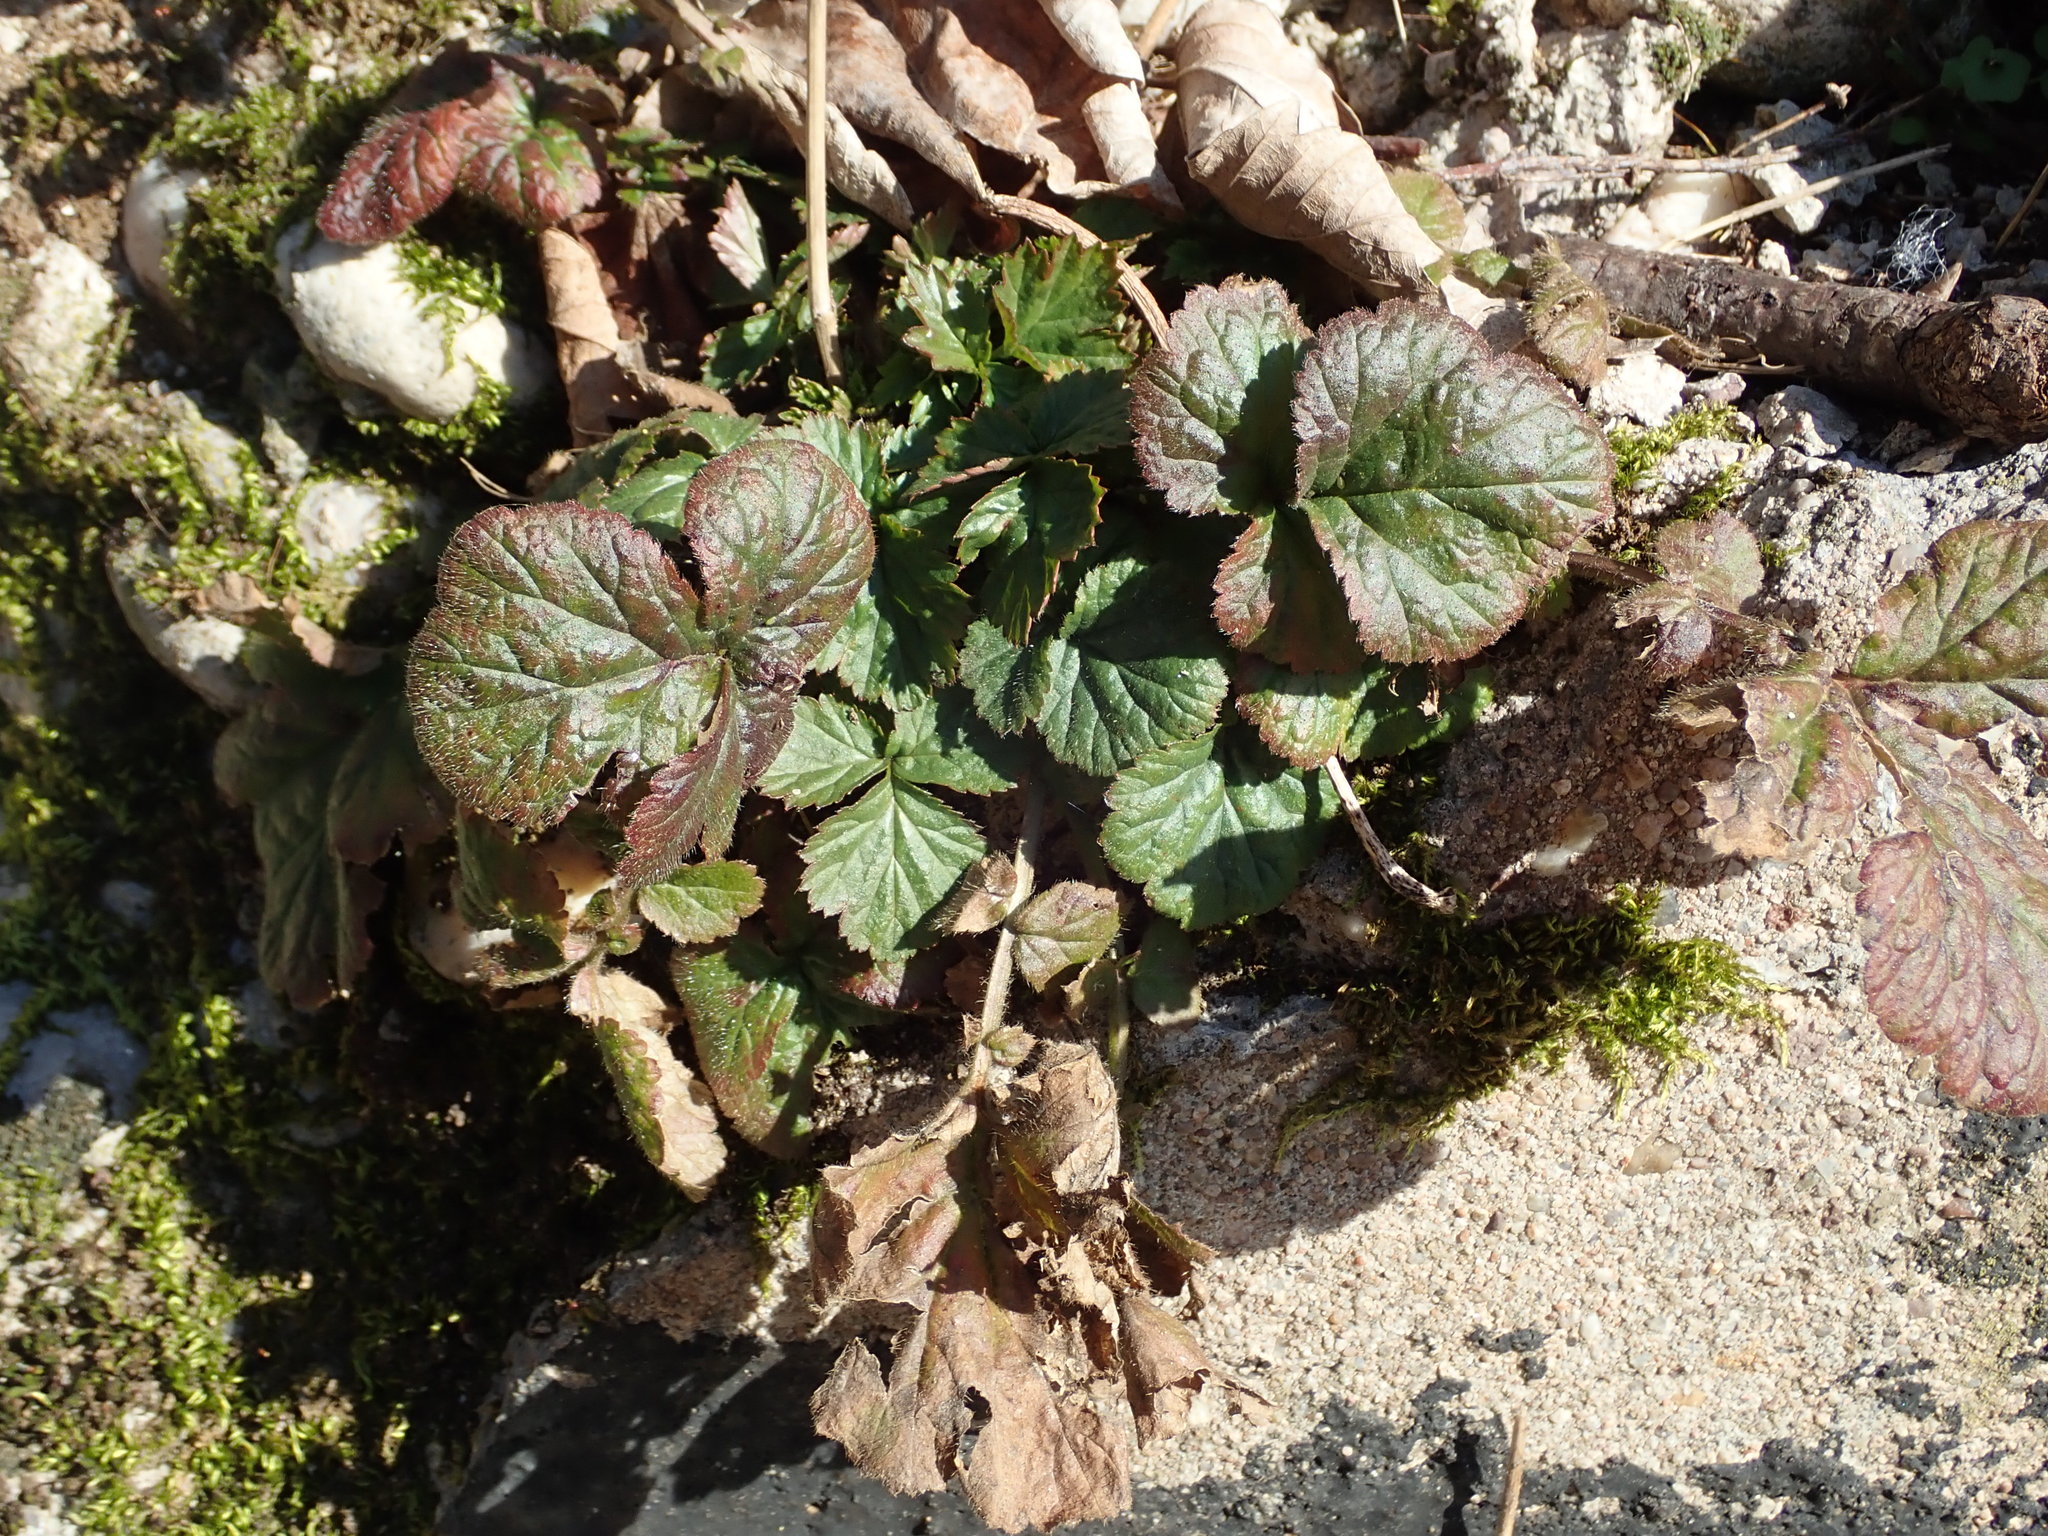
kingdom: Plantae
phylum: Tracheophyta
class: Magnoliopsida
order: Rosales
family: Rosaceae
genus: Geum
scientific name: Geum urbanum
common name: Wood avens
